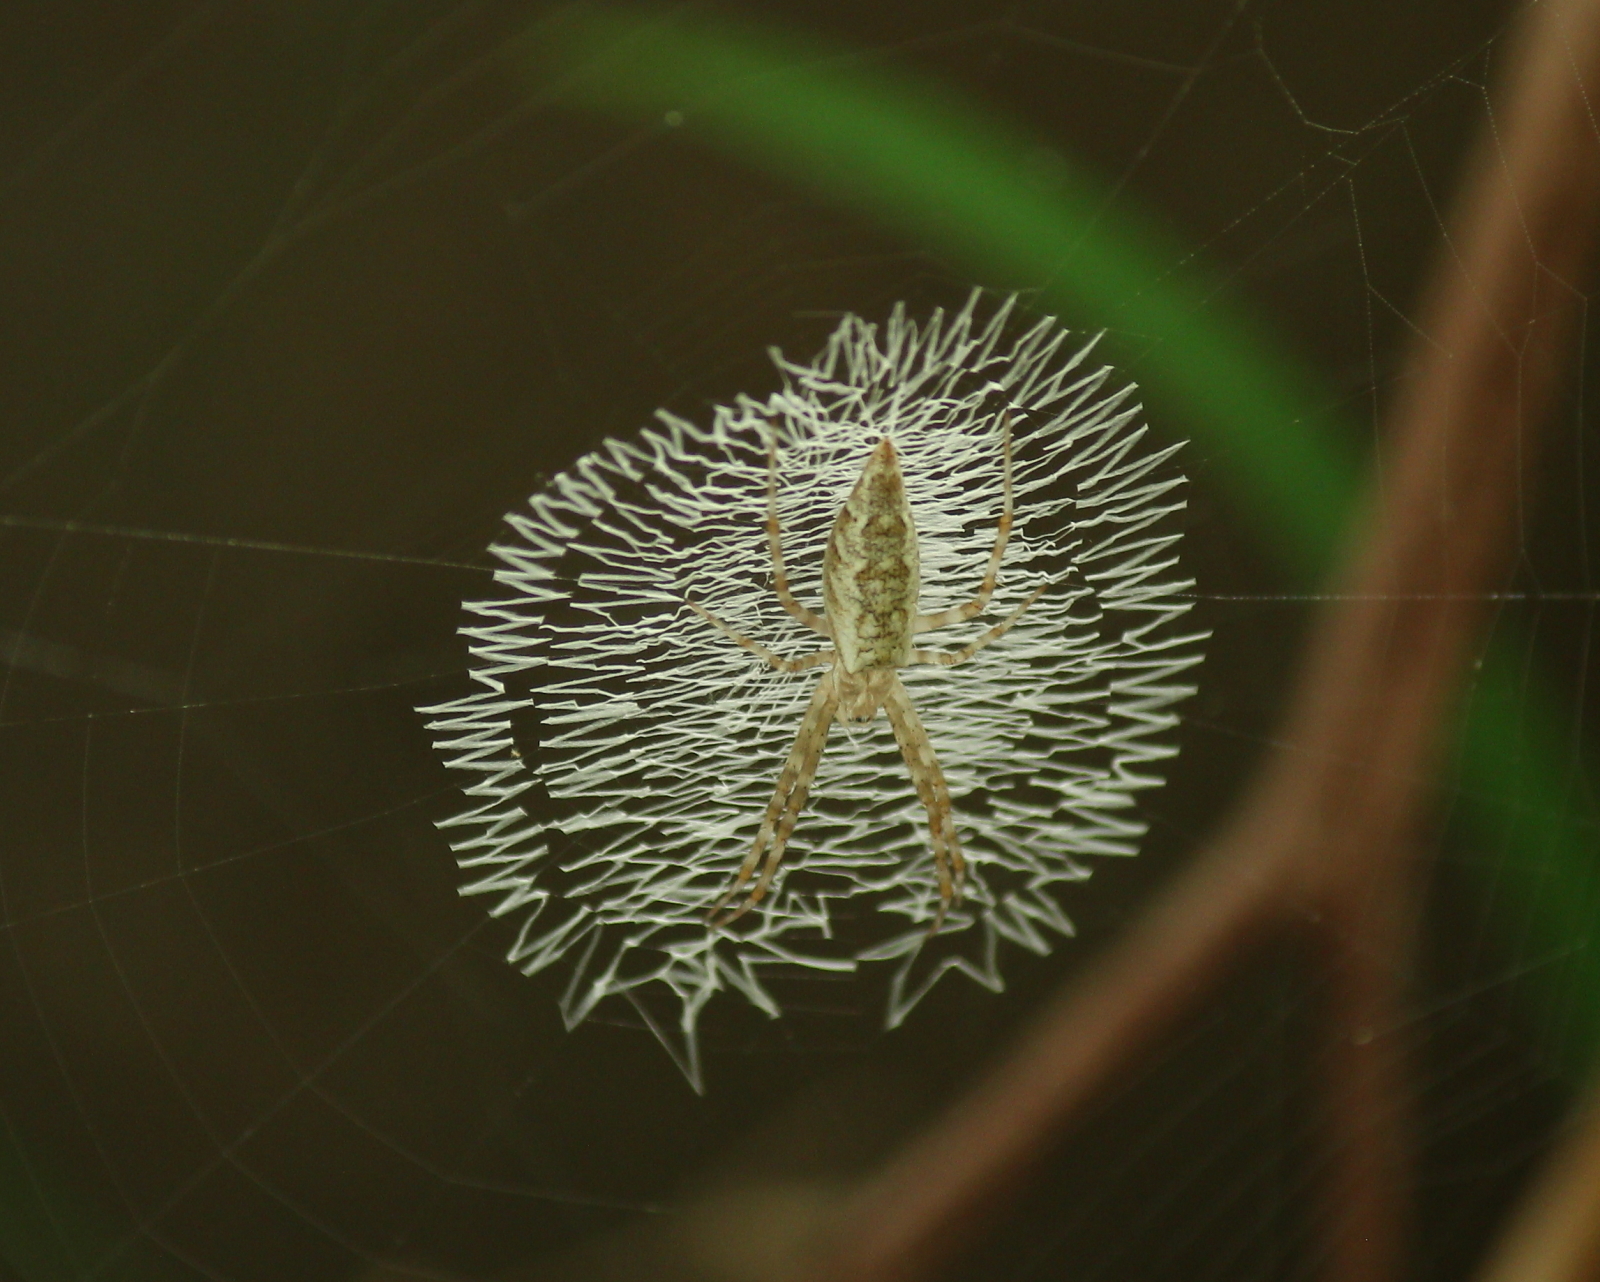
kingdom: Animalia
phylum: Arthropoda
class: Arachnida
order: Araneae
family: Araneidae
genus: Argiope
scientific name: Argiope aurantia
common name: Orb weavers
